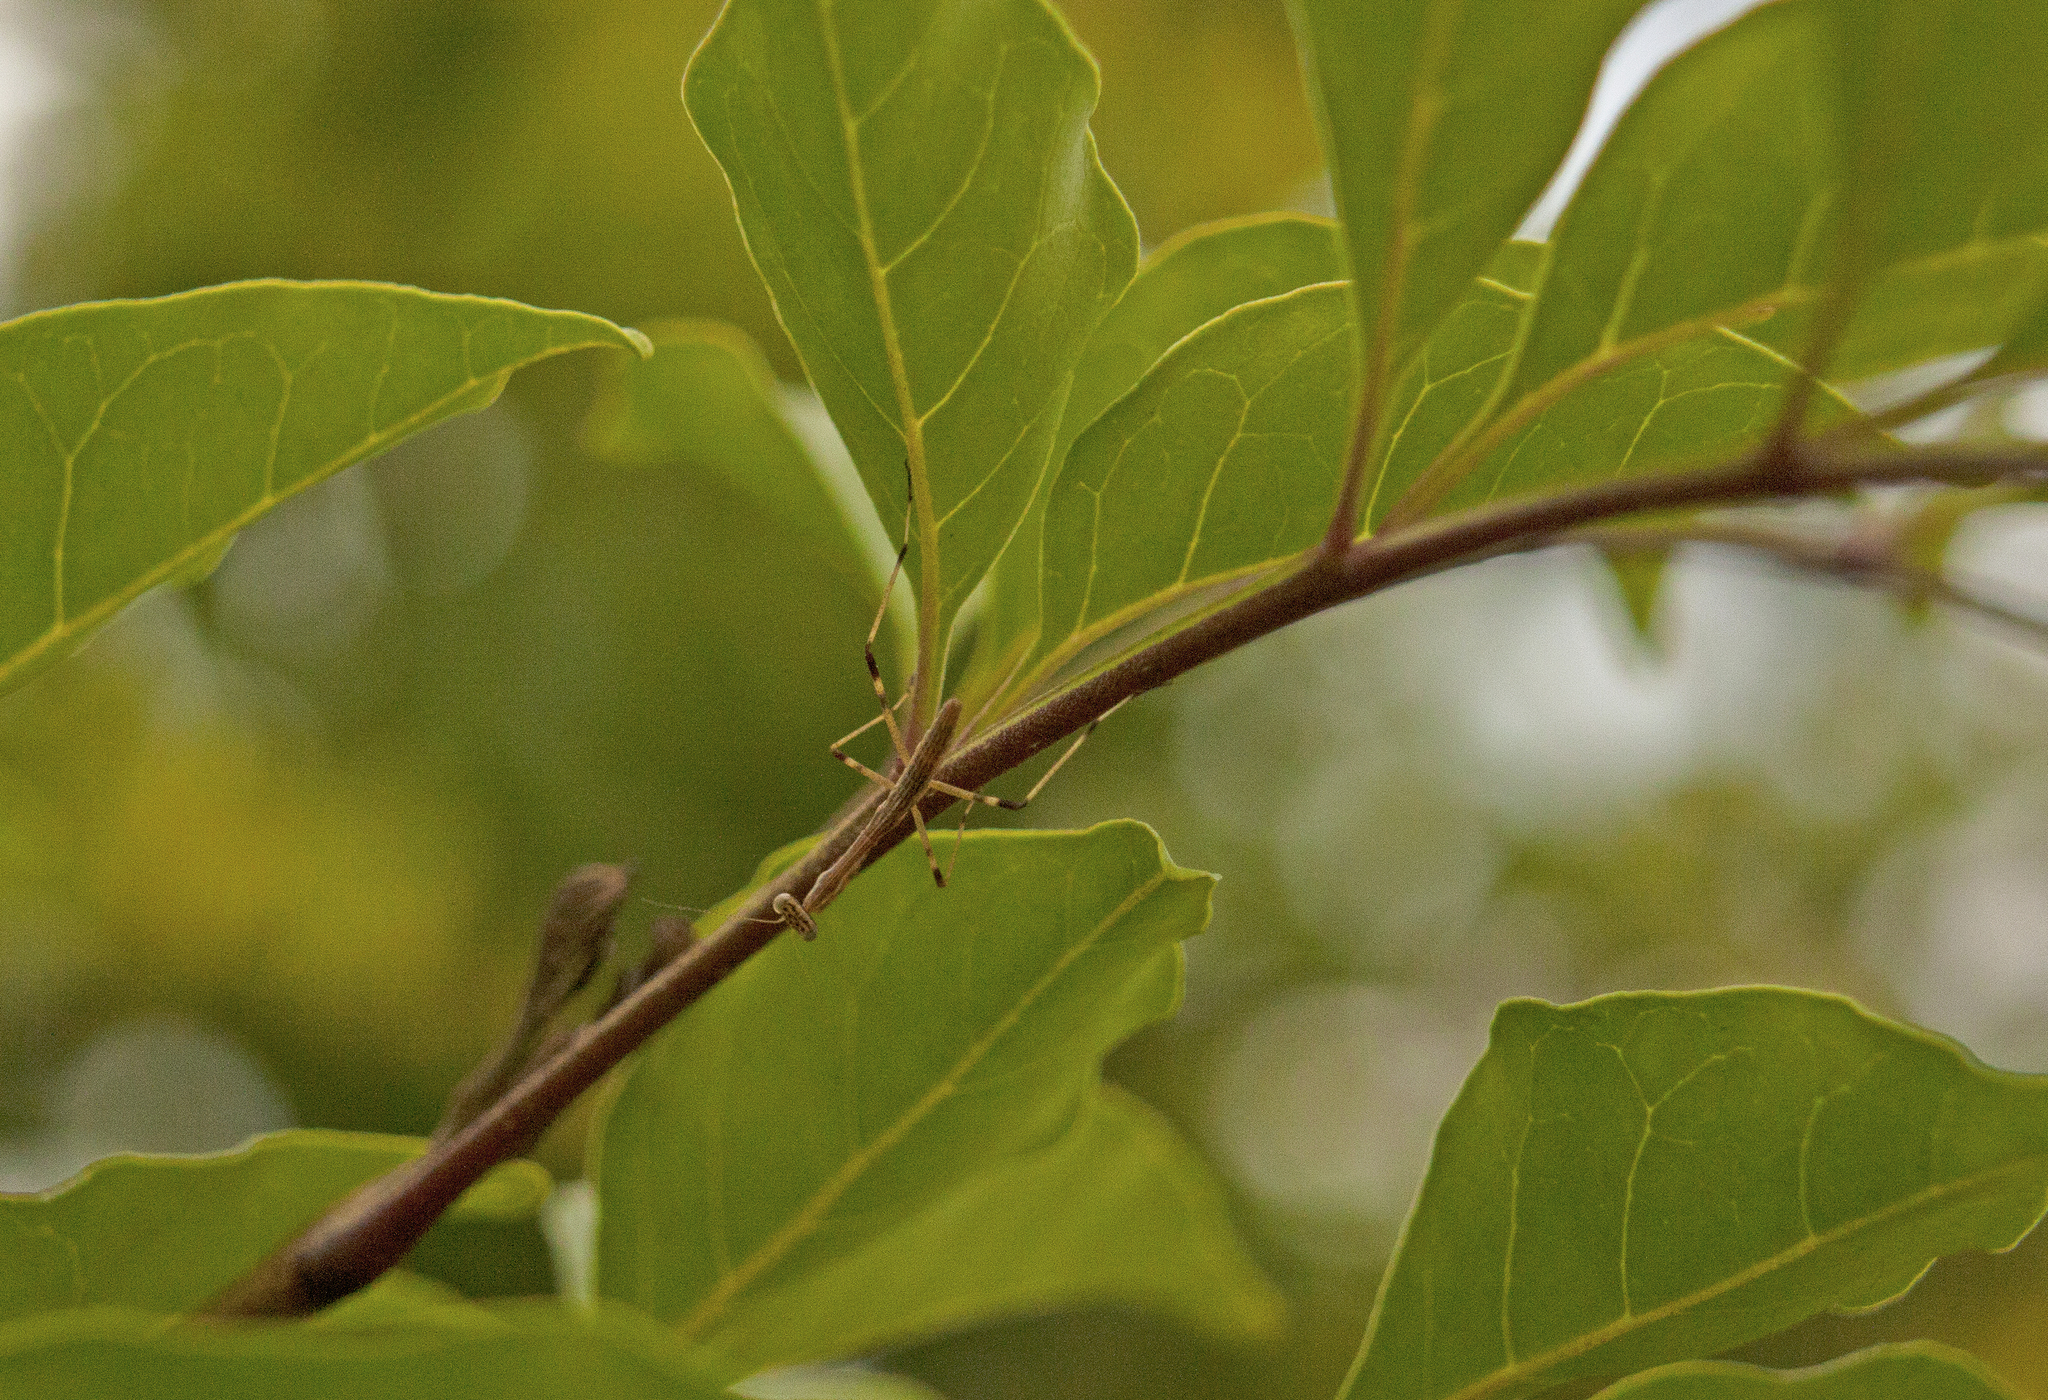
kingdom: Animalia
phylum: Arthropoda
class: Insecta
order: Mantodea
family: Mantidae
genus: Archimantis
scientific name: Archimantis latistyla
